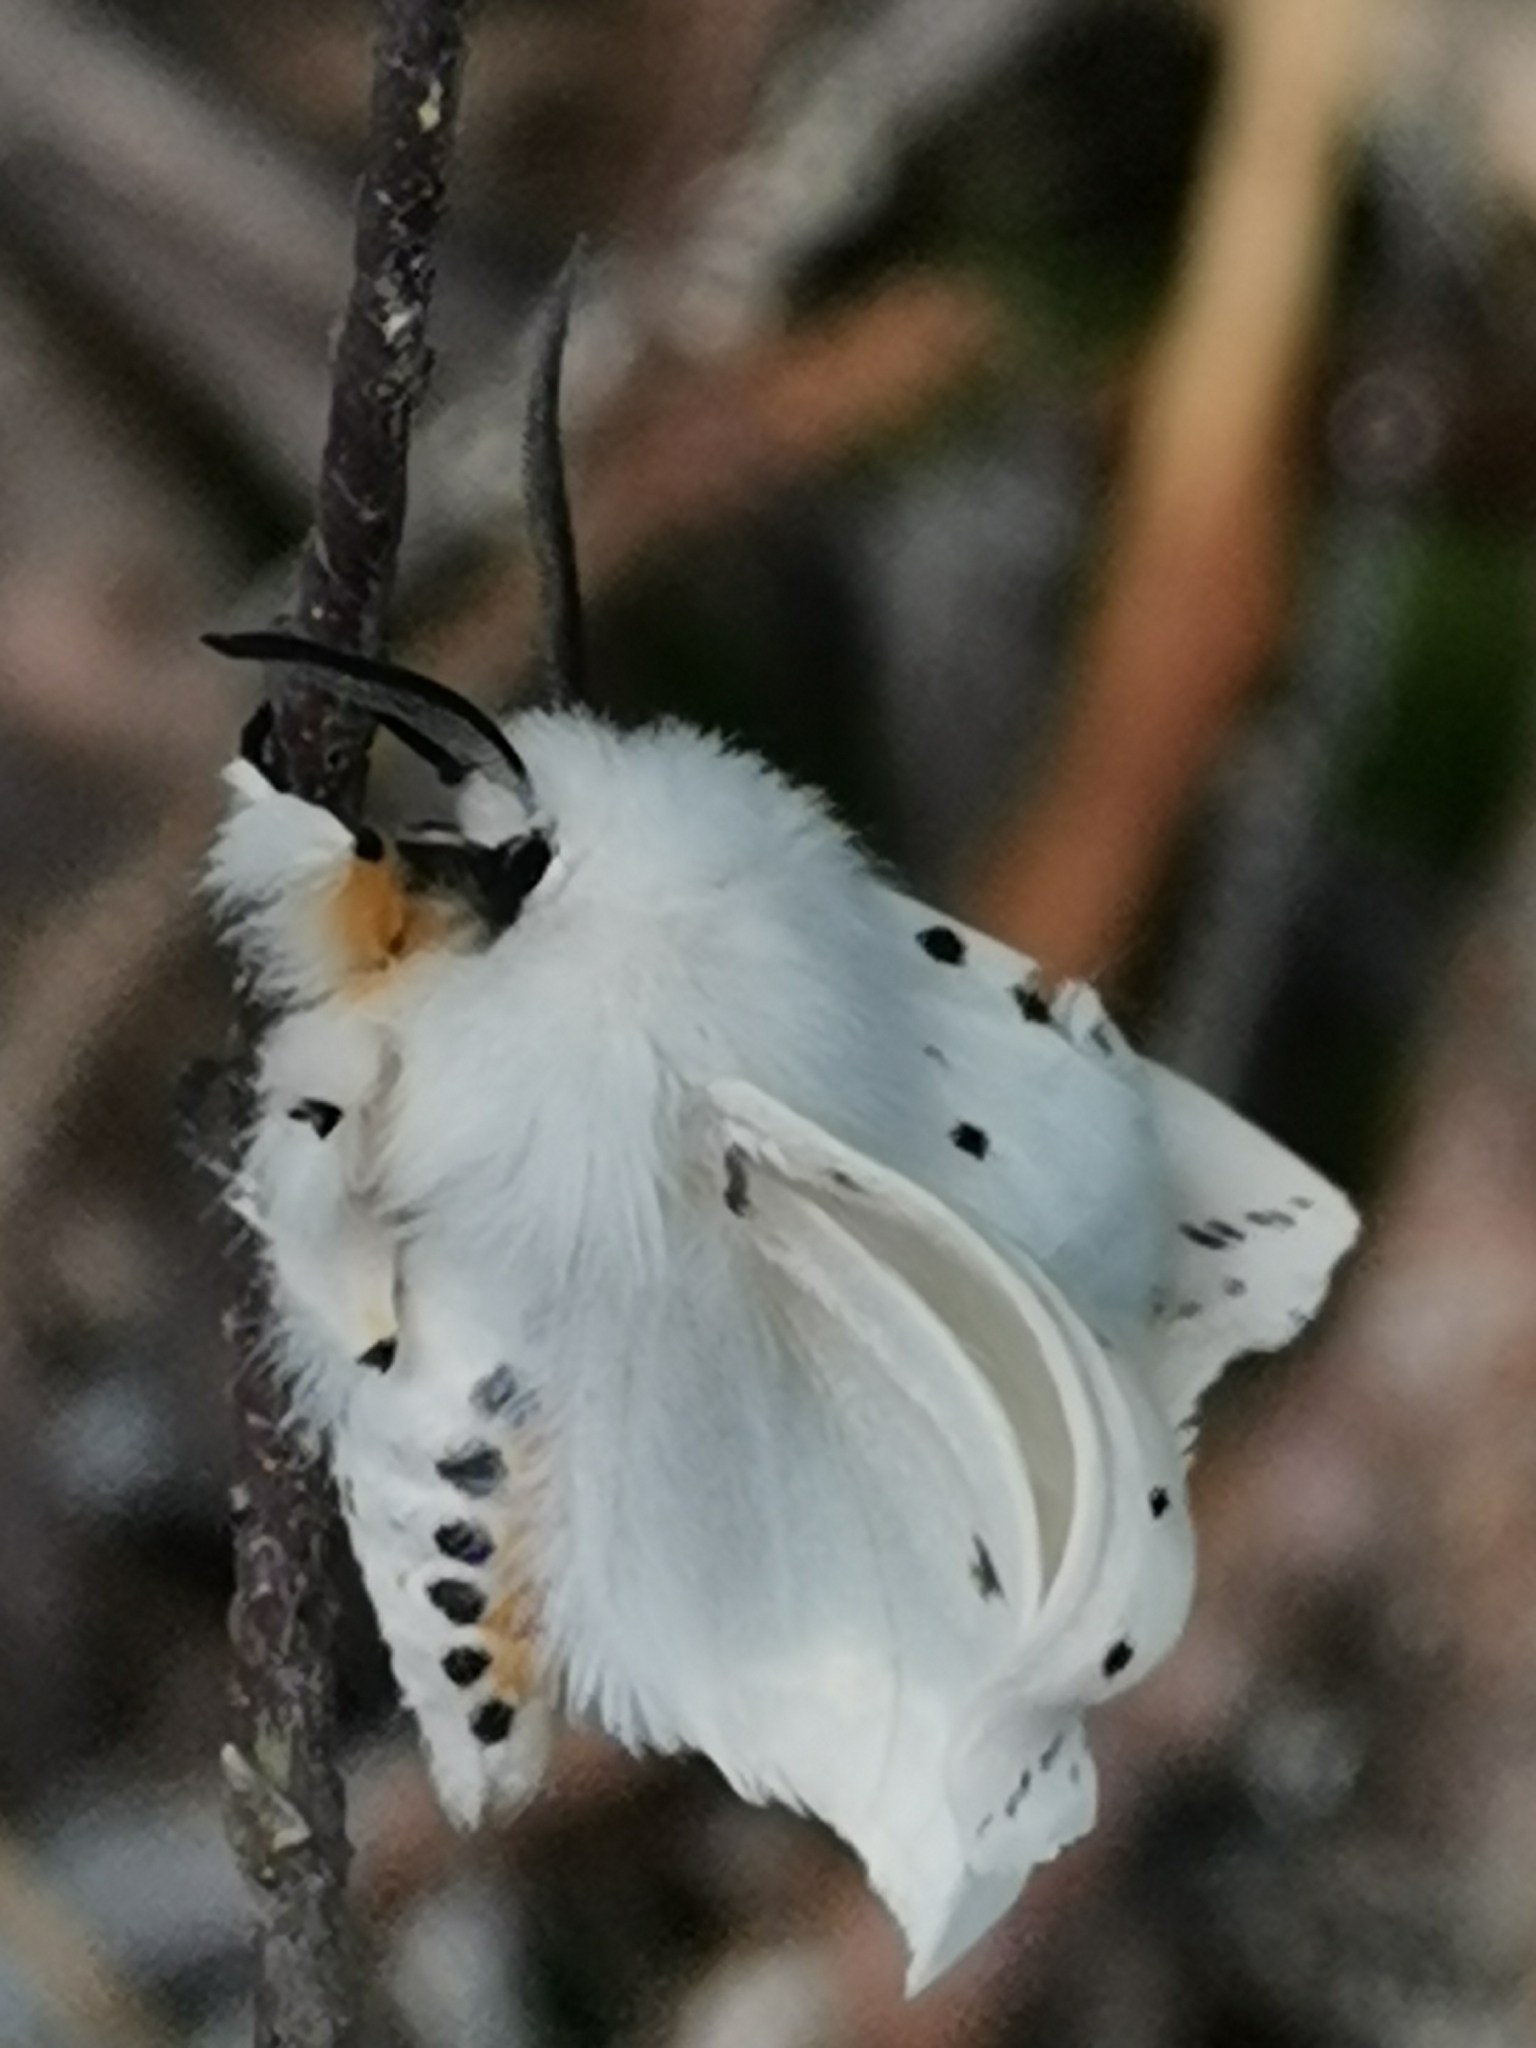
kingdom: Animalia
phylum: Arthropoda
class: Insecta
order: Lepidoptera
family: Erebidae
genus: Spilosoma
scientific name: Spilosoma lubricipeda
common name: White ermine
